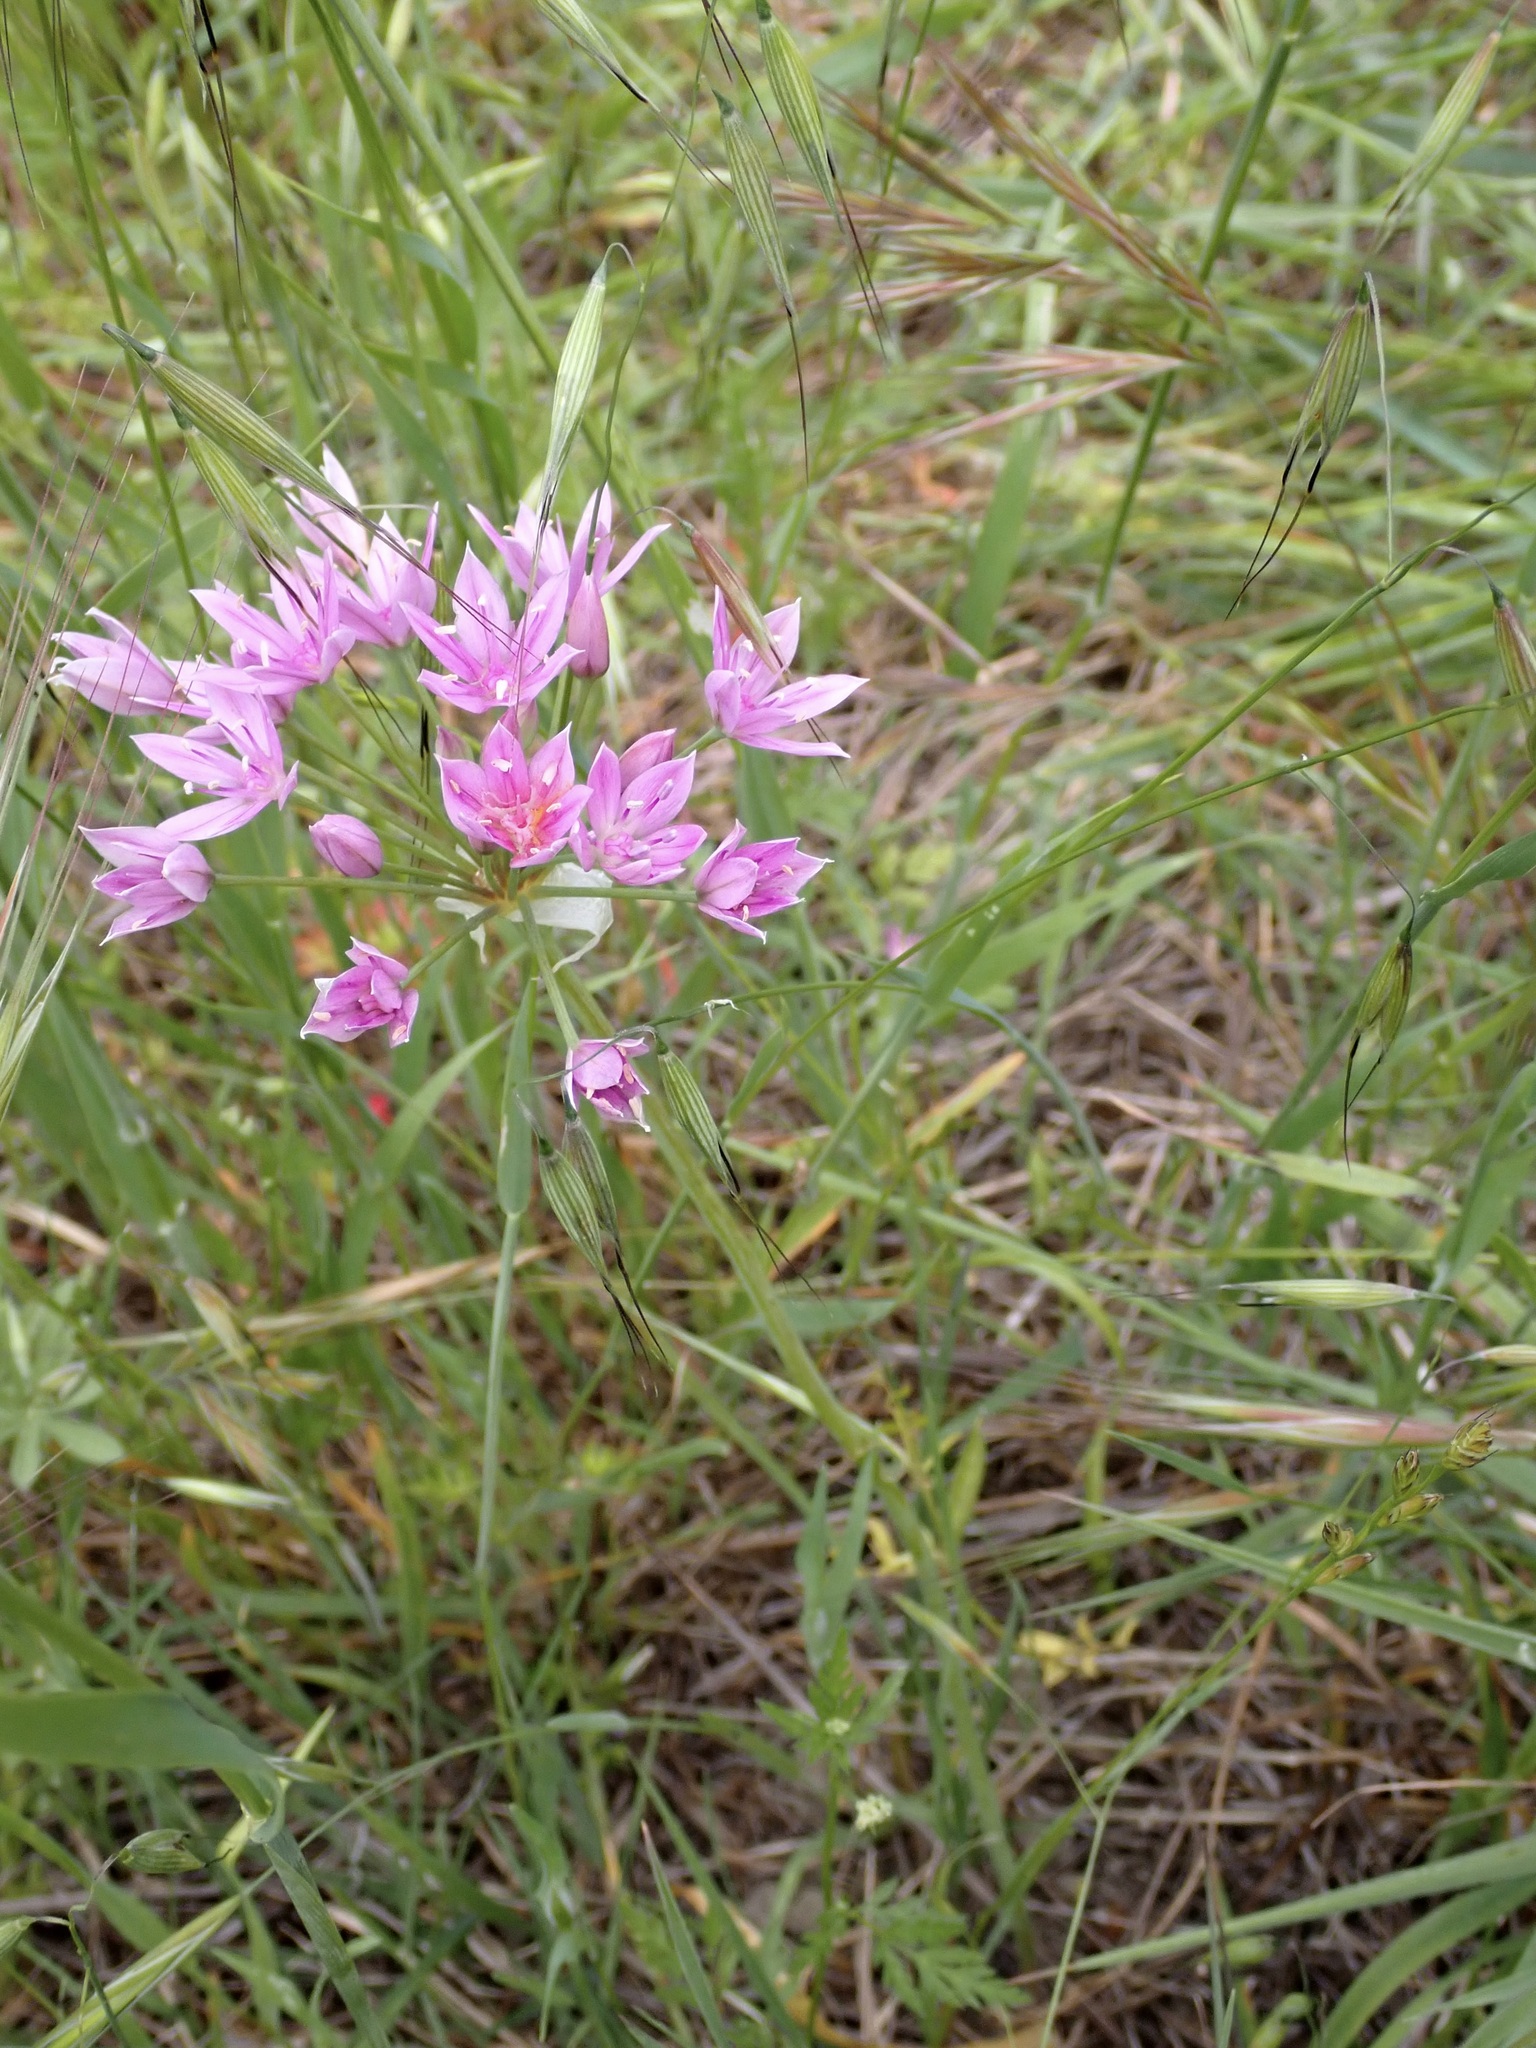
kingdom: Plantae
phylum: Tracheophyta
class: Liliopsida
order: Asparagales
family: Amaryllidaceae
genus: Allium
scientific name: Allium unifolium
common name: American garlic
